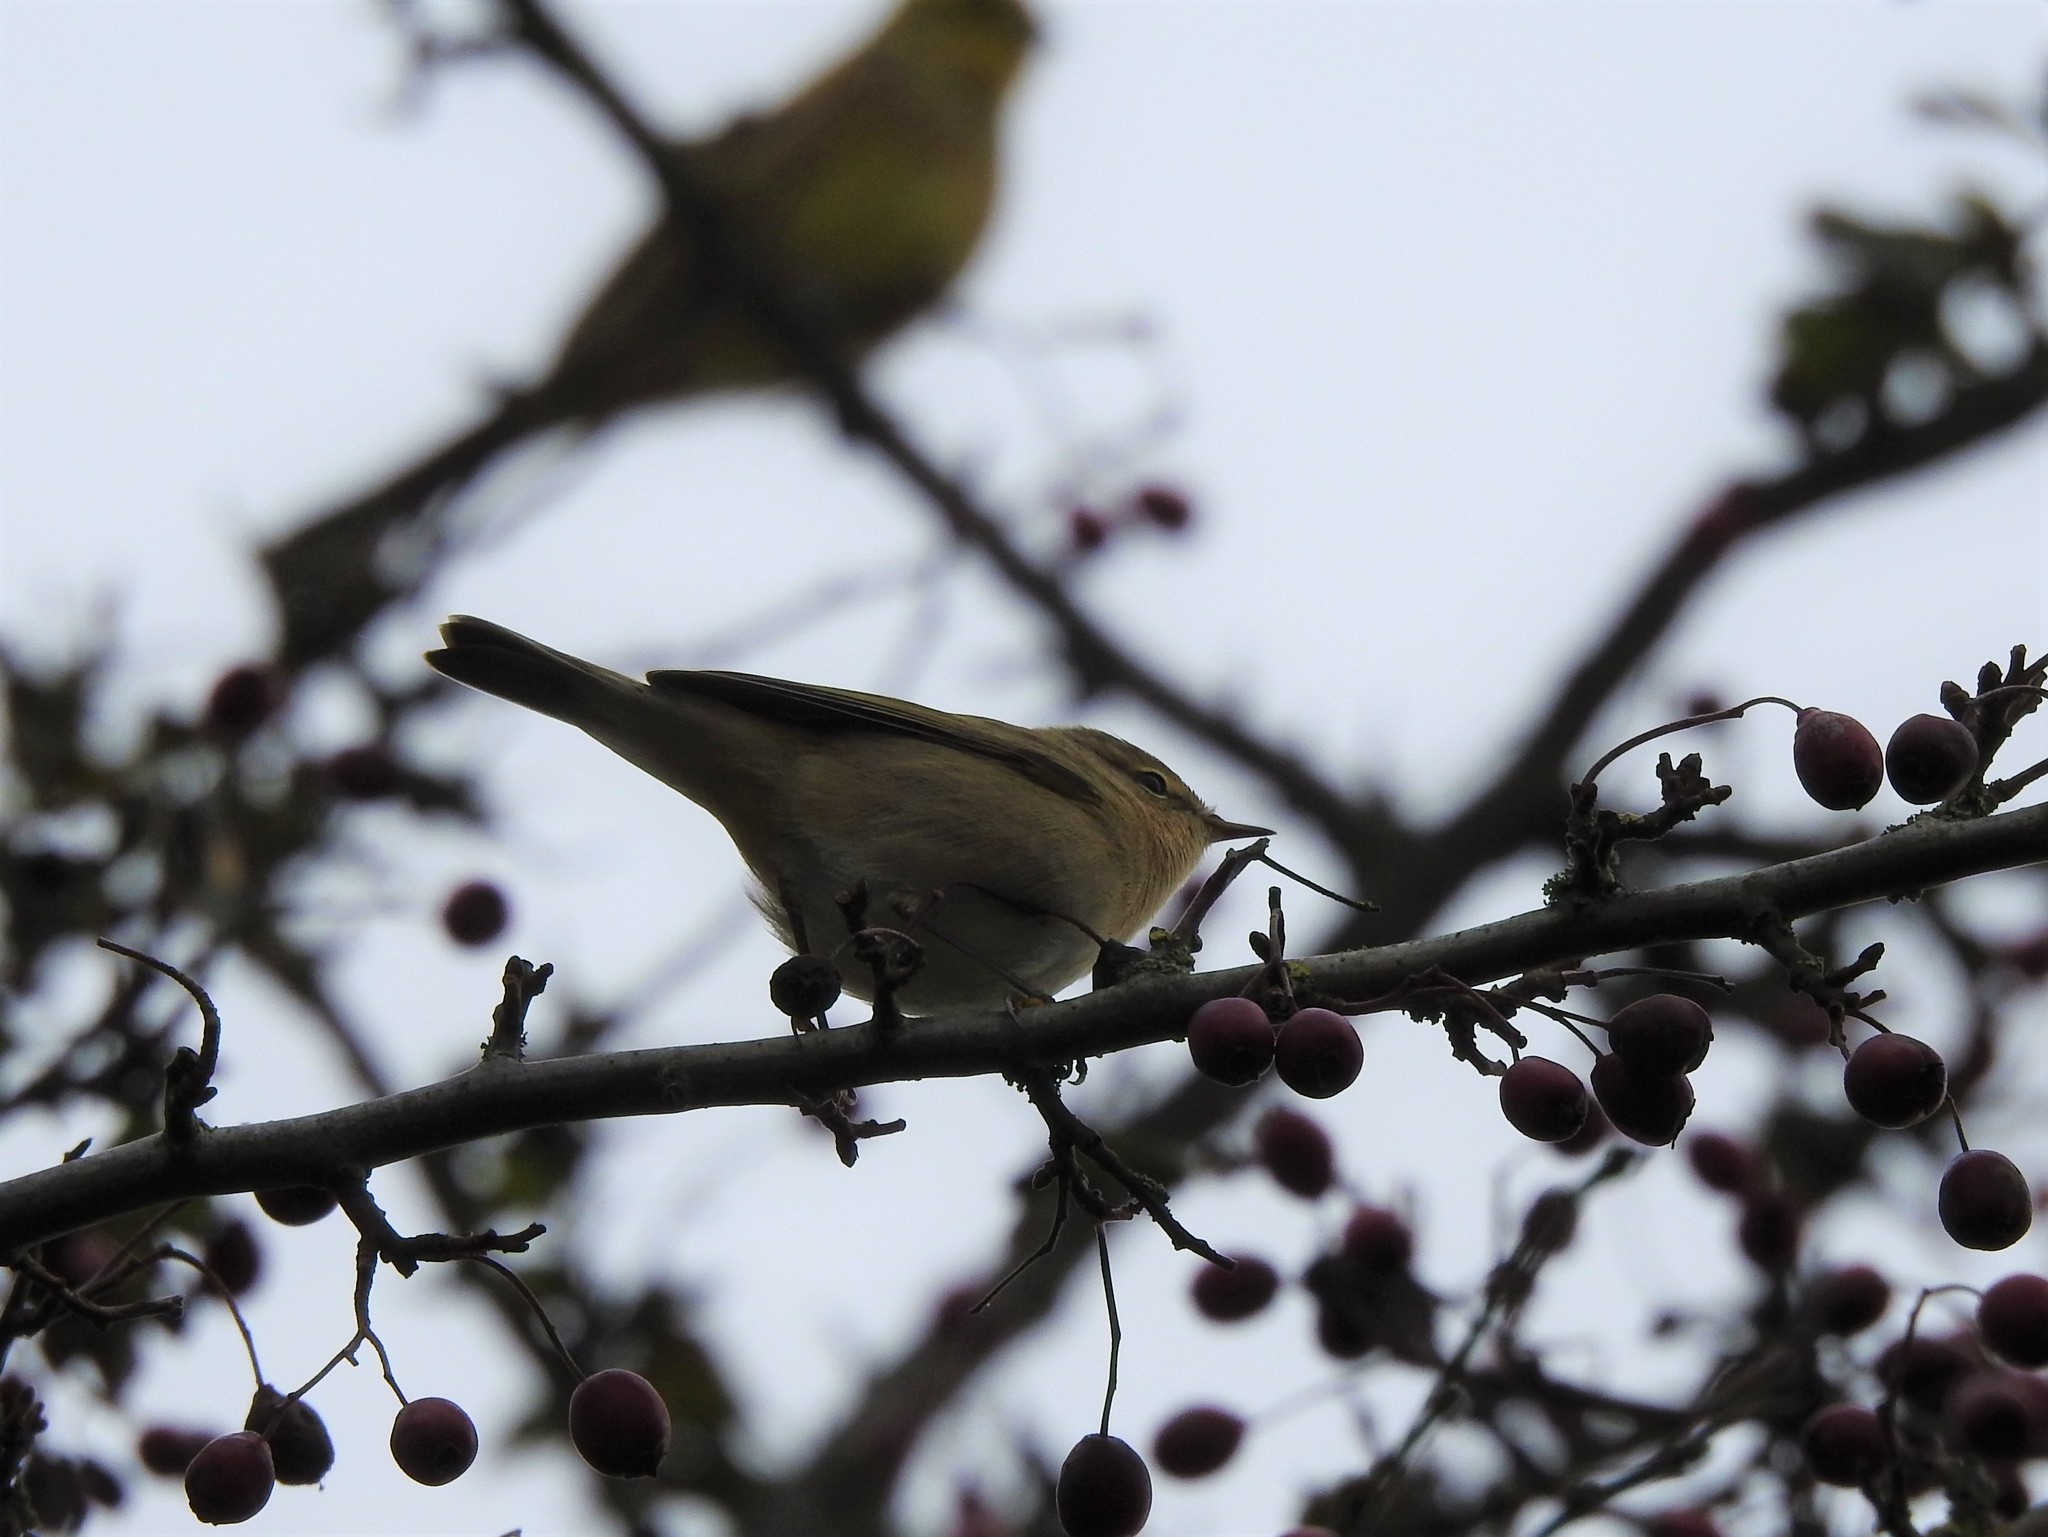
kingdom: Animalia
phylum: Chordata
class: Aves
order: Passeriformes
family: Phylloscopidae
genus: Phylloscopus
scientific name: Phylloscopus collybita
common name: Common chiffchaff
